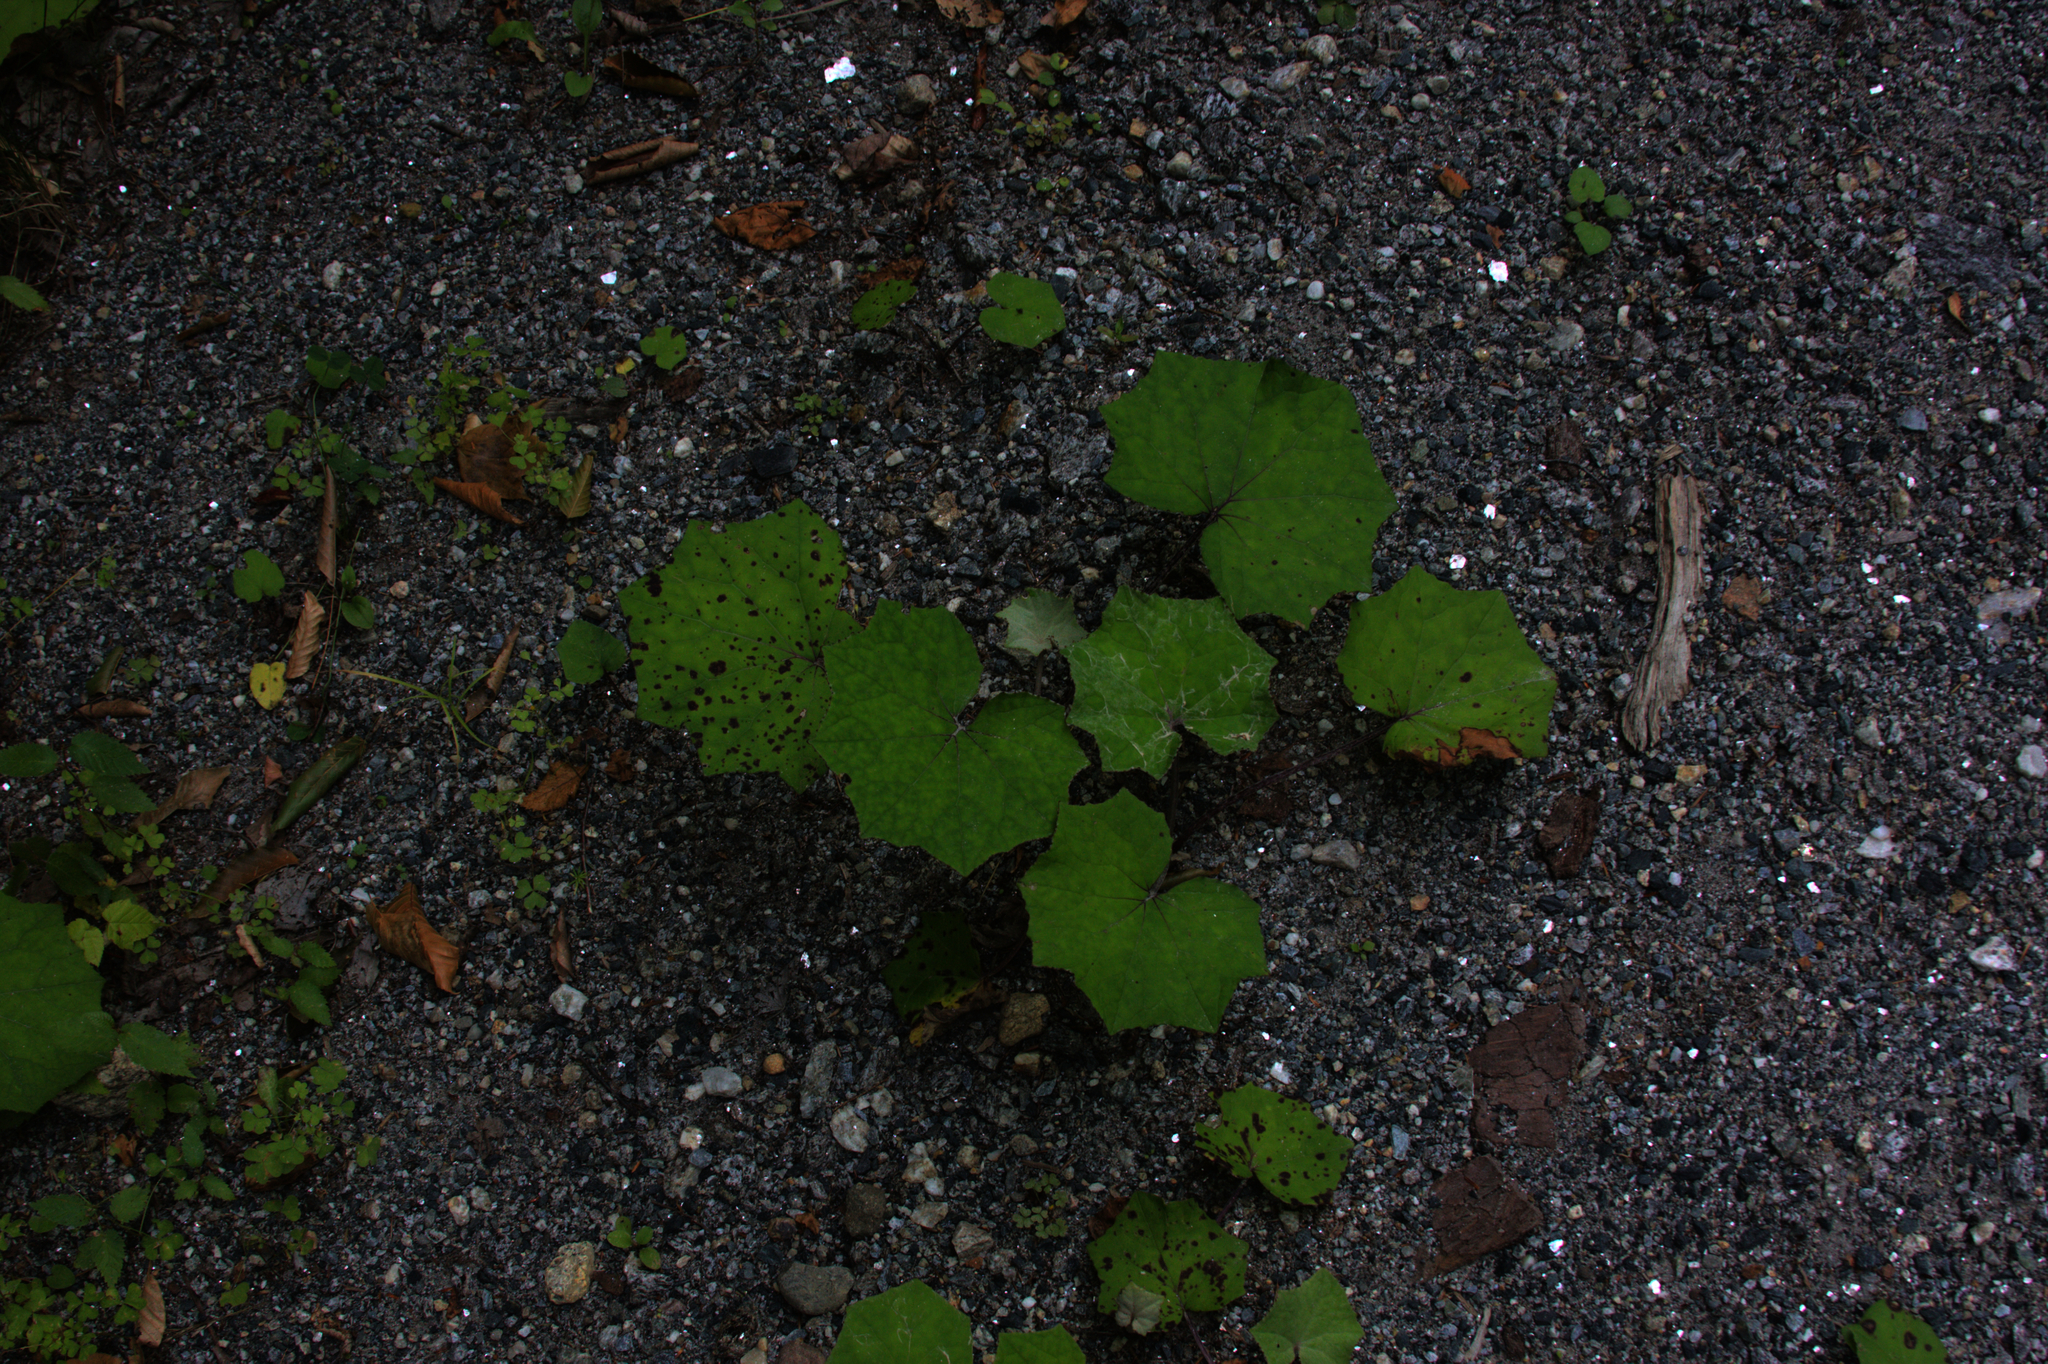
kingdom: Plantae
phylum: Tracheophyta
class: Magnoliopsida
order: Asterales
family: Asteraceae
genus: Tussilago
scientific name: Tussilago farfara
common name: Coltsfoot
